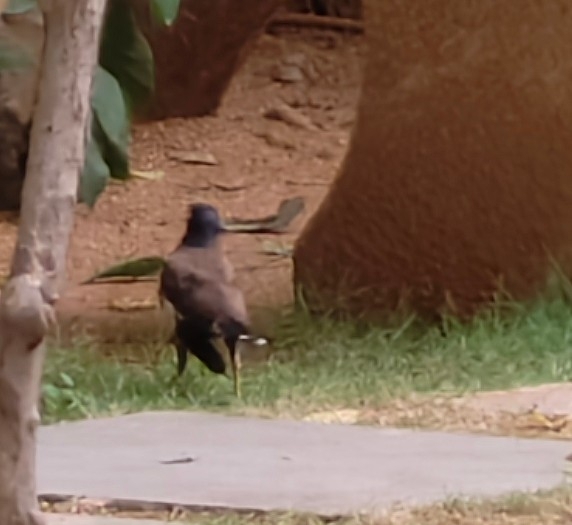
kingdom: Animalia
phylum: Chordata
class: Aves
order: Passeriformes
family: Sturnidae
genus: Acridotheres
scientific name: Acridotheres tristis
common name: Common myna
